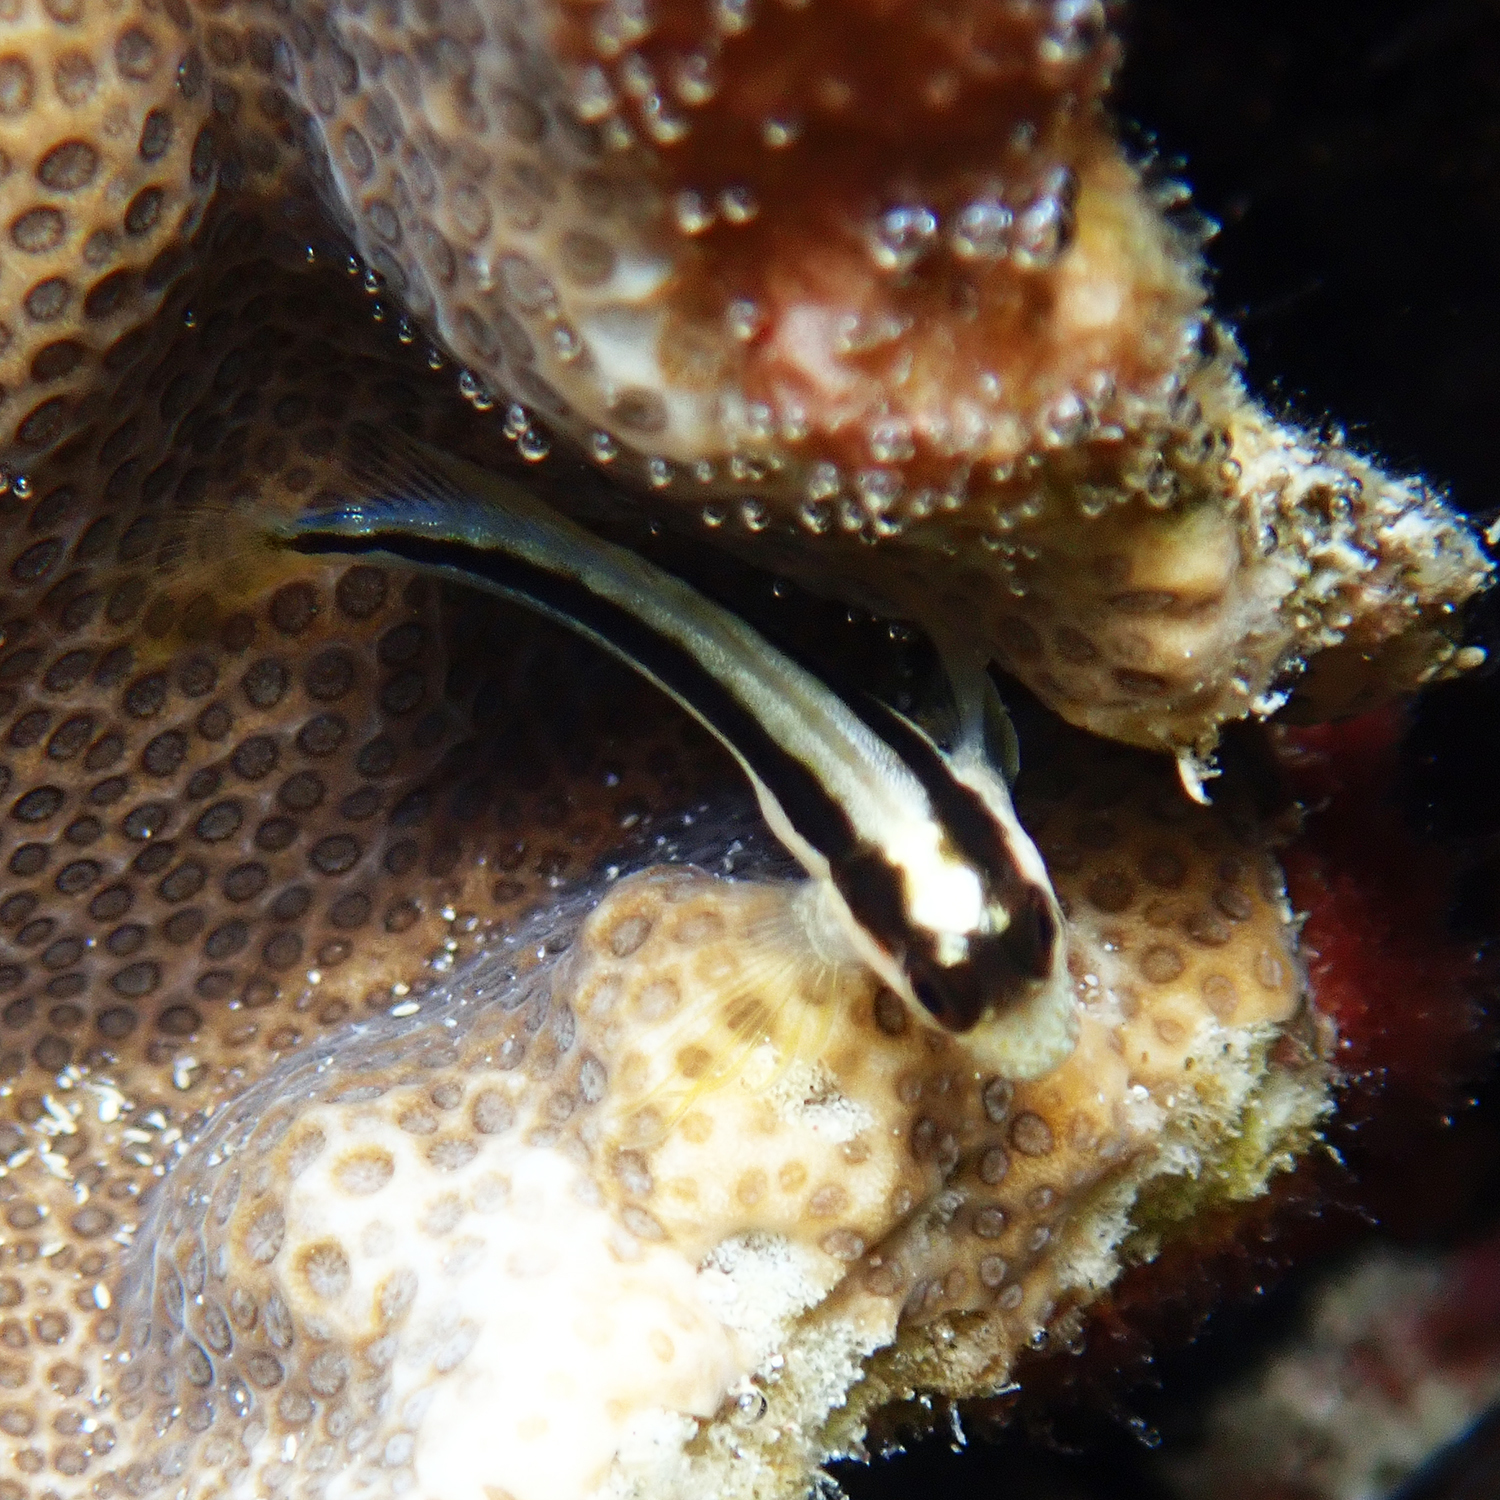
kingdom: Animalia
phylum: Chordata
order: Perciformes
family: Blenniidae
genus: Parablennius
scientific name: Parablennius serratolineatus
